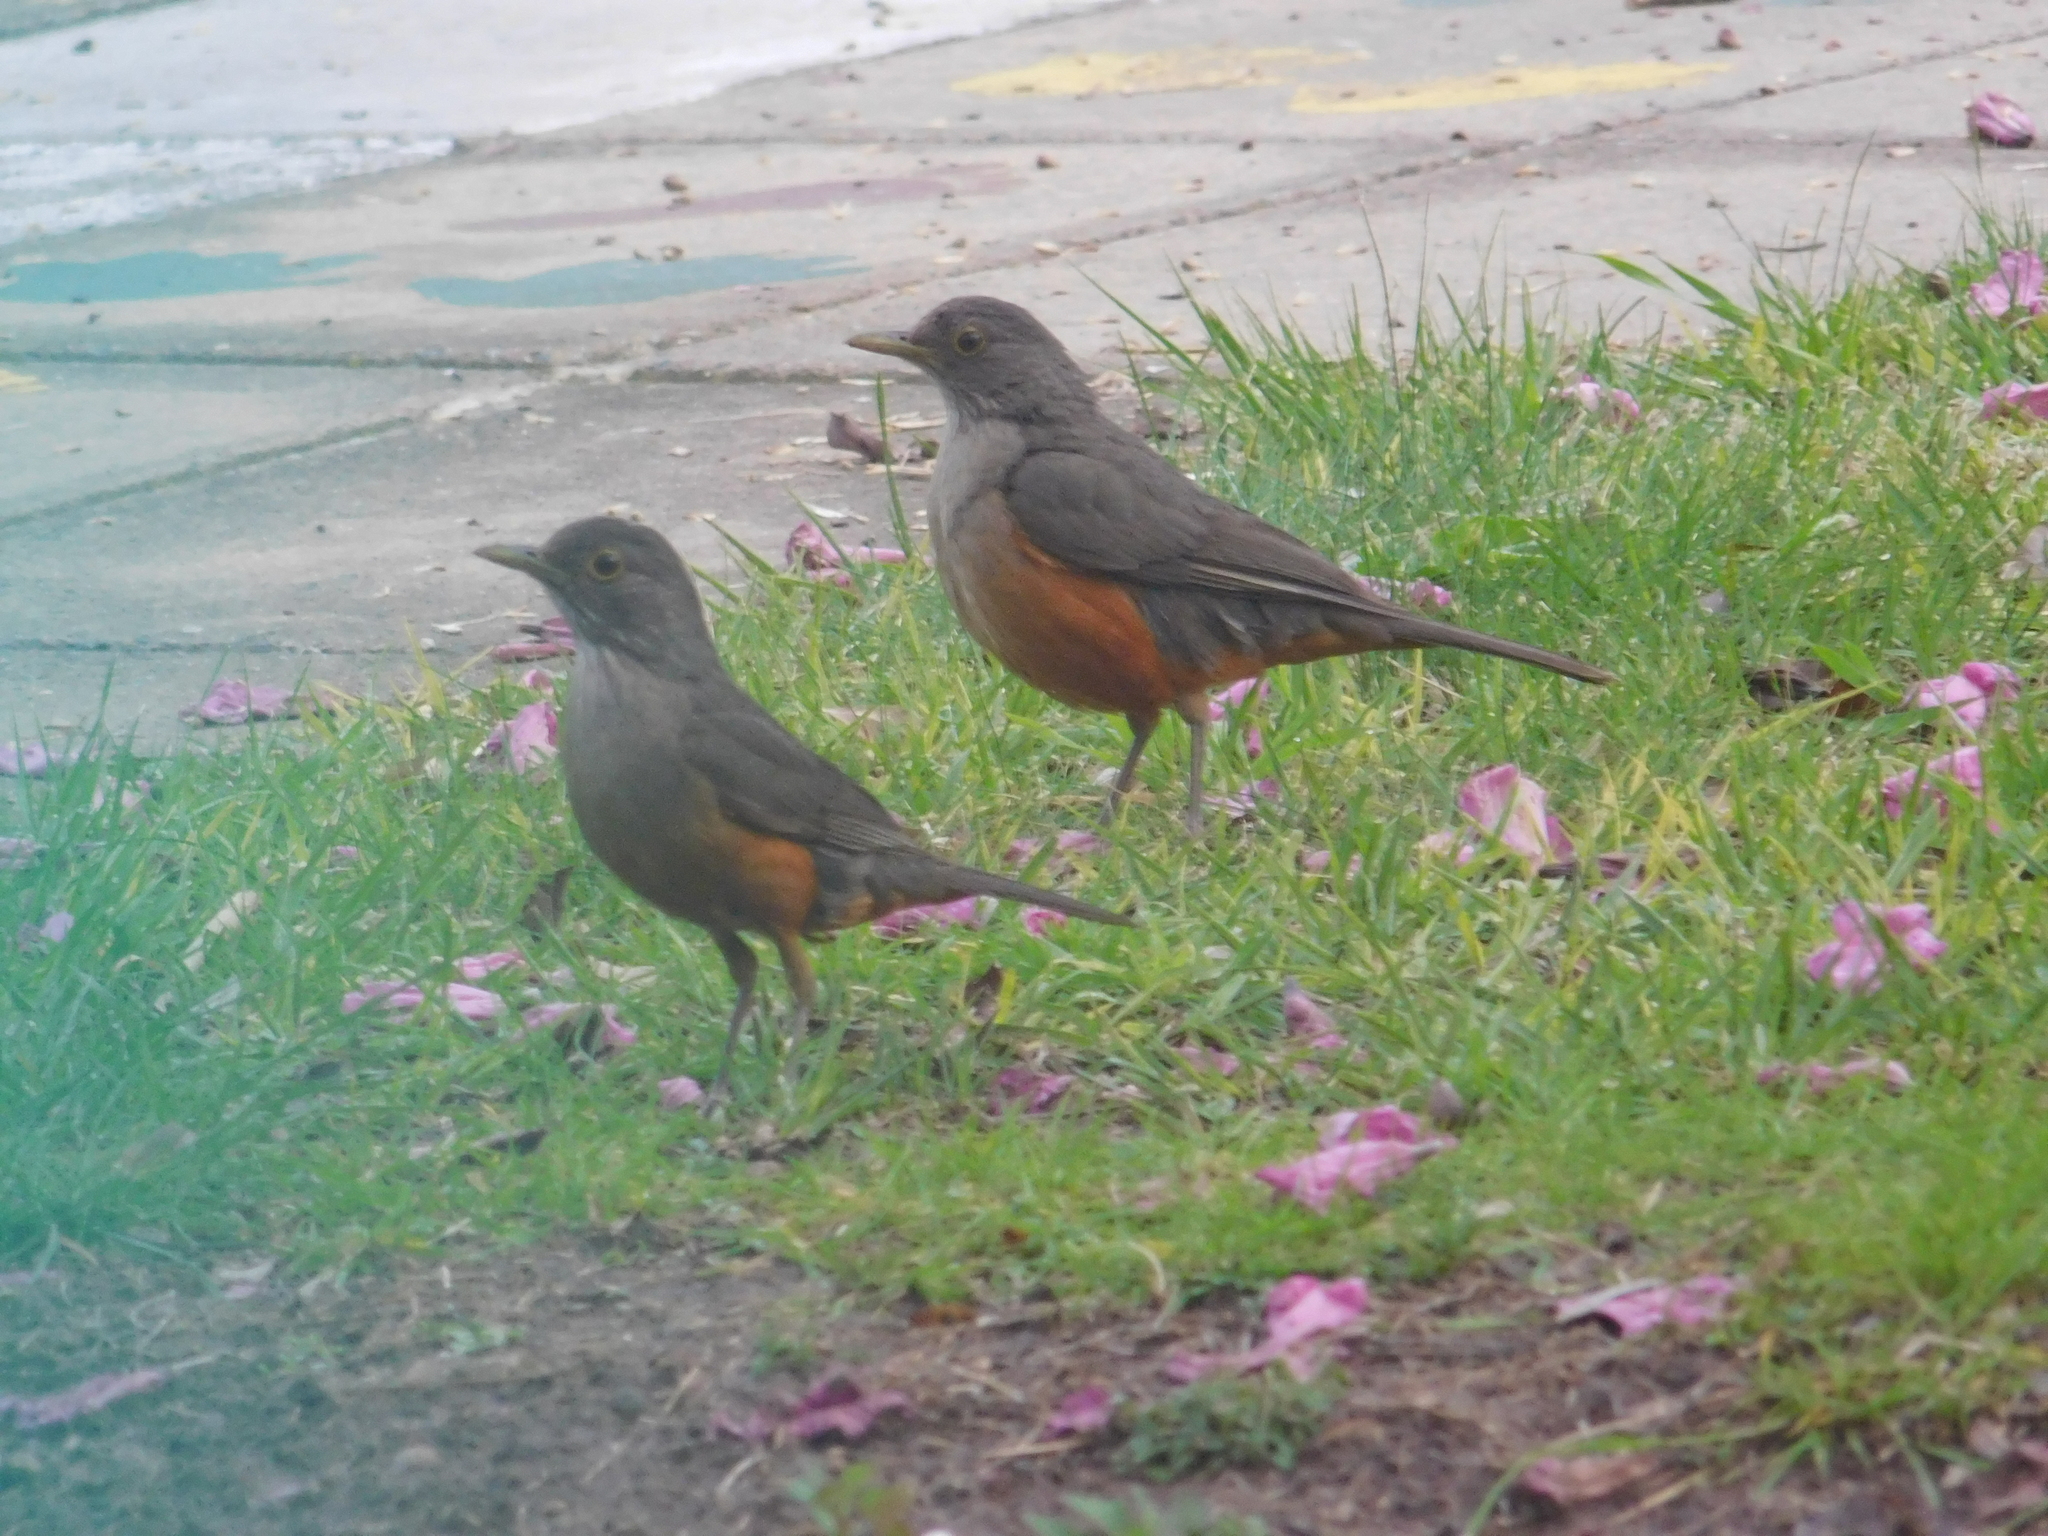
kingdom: Animalia
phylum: Chordata
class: Aves
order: Passeriformes
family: Turdidae
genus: Turdus
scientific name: Turdus rufiventris
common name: Rufous-bellied thrush
